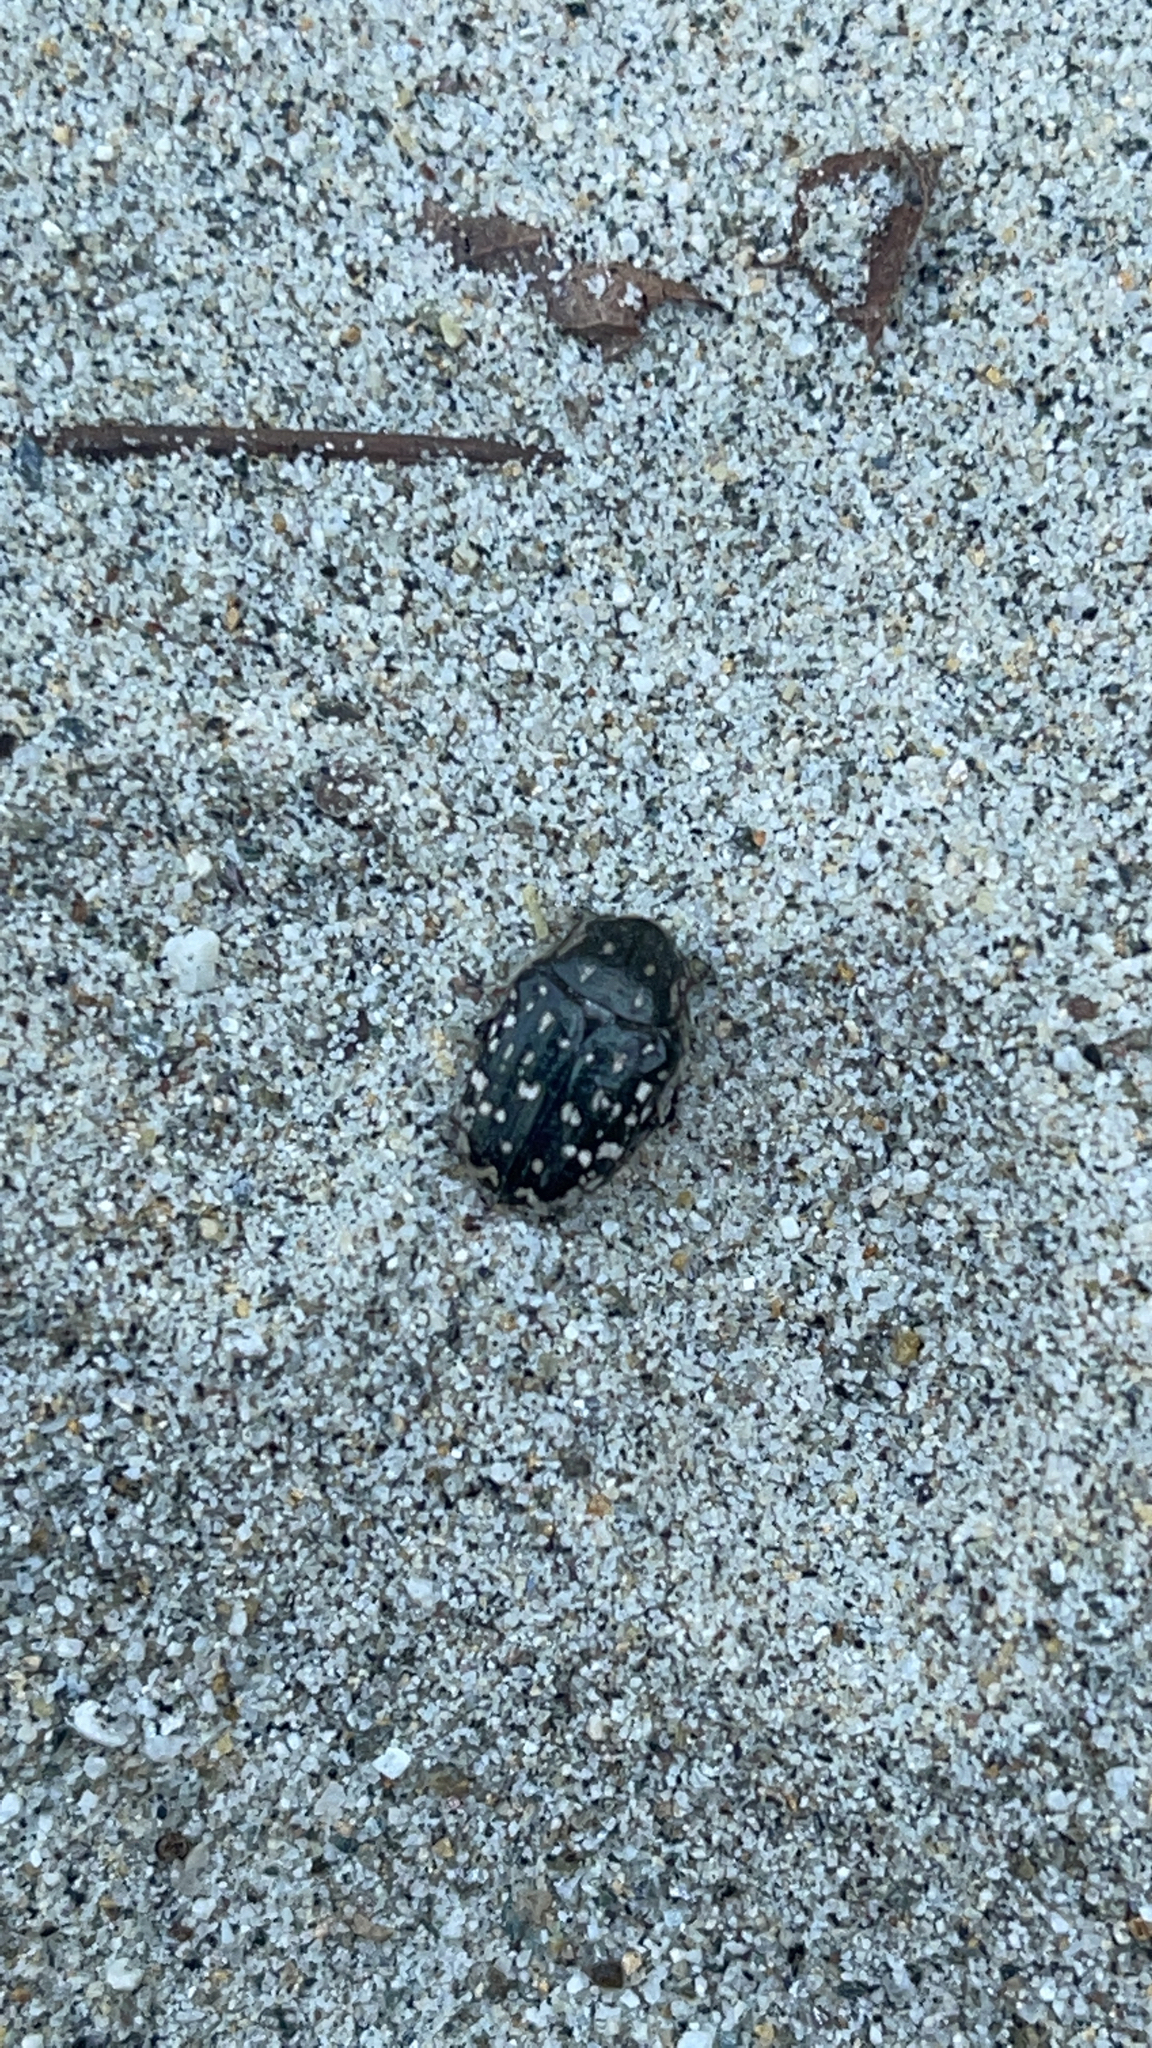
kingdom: Animalia
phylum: Arthropoda
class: Insecta
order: Coleoptera
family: Scarabaeidae
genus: Oxythyrea
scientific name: Oxythyrea funesta
